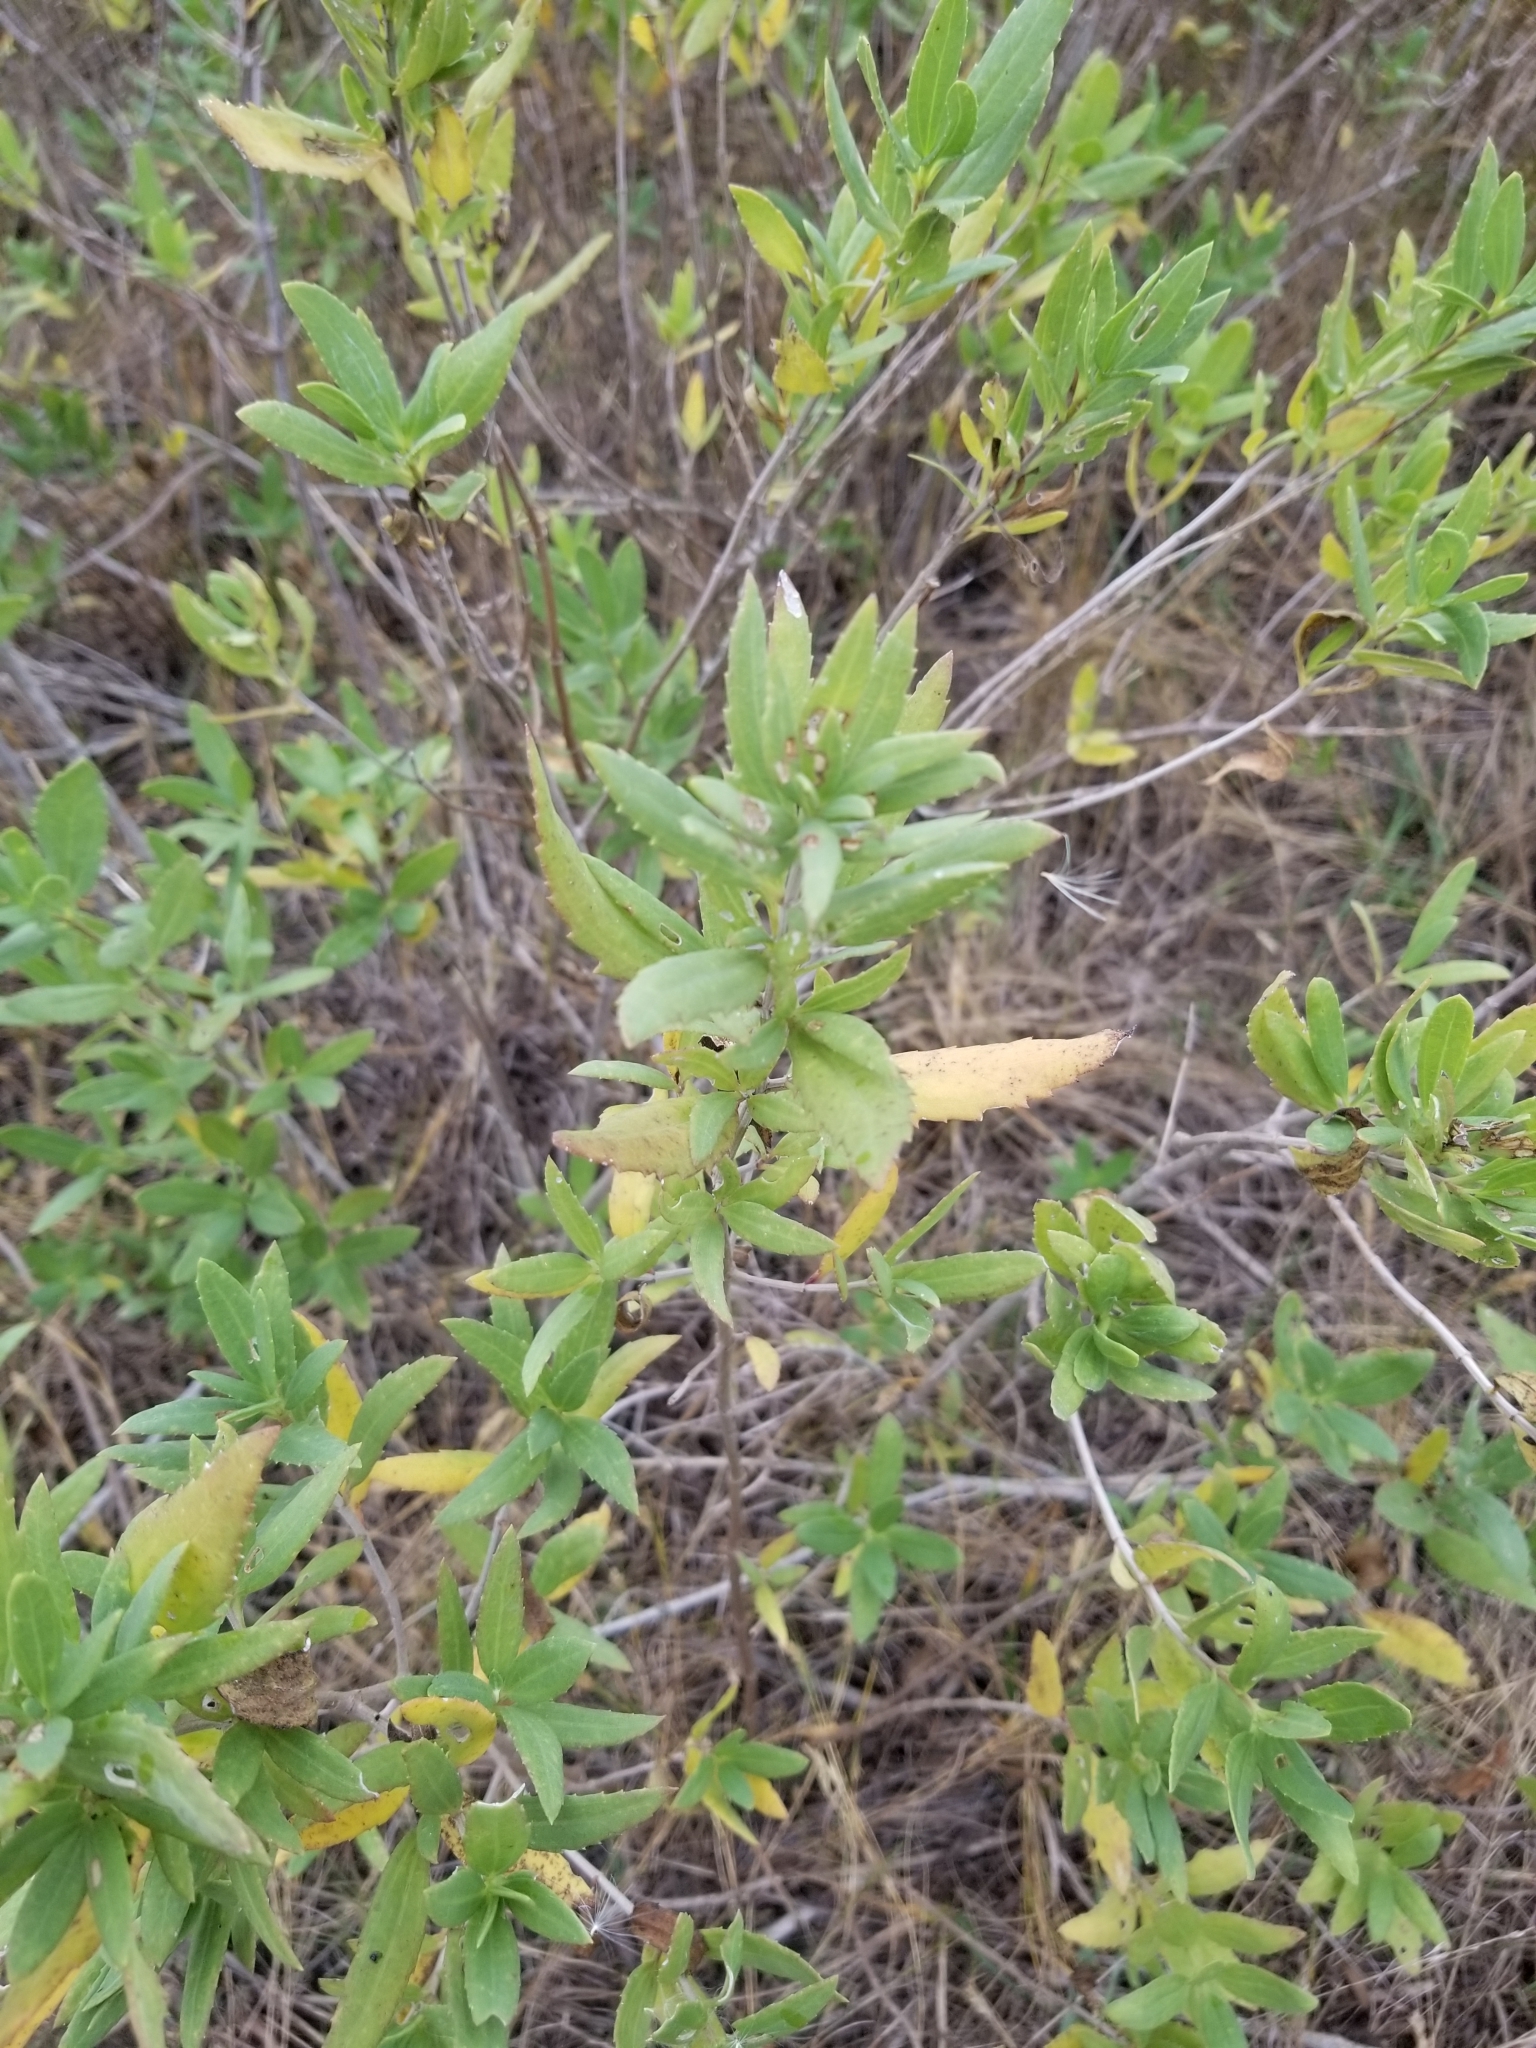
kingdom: Plantae
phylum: Tracheophyta
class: Magnoliopsida
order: Asterales
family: Asteraceae
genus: Iva
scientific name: Iva frutescens
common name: Big-leaved marsh-elder
